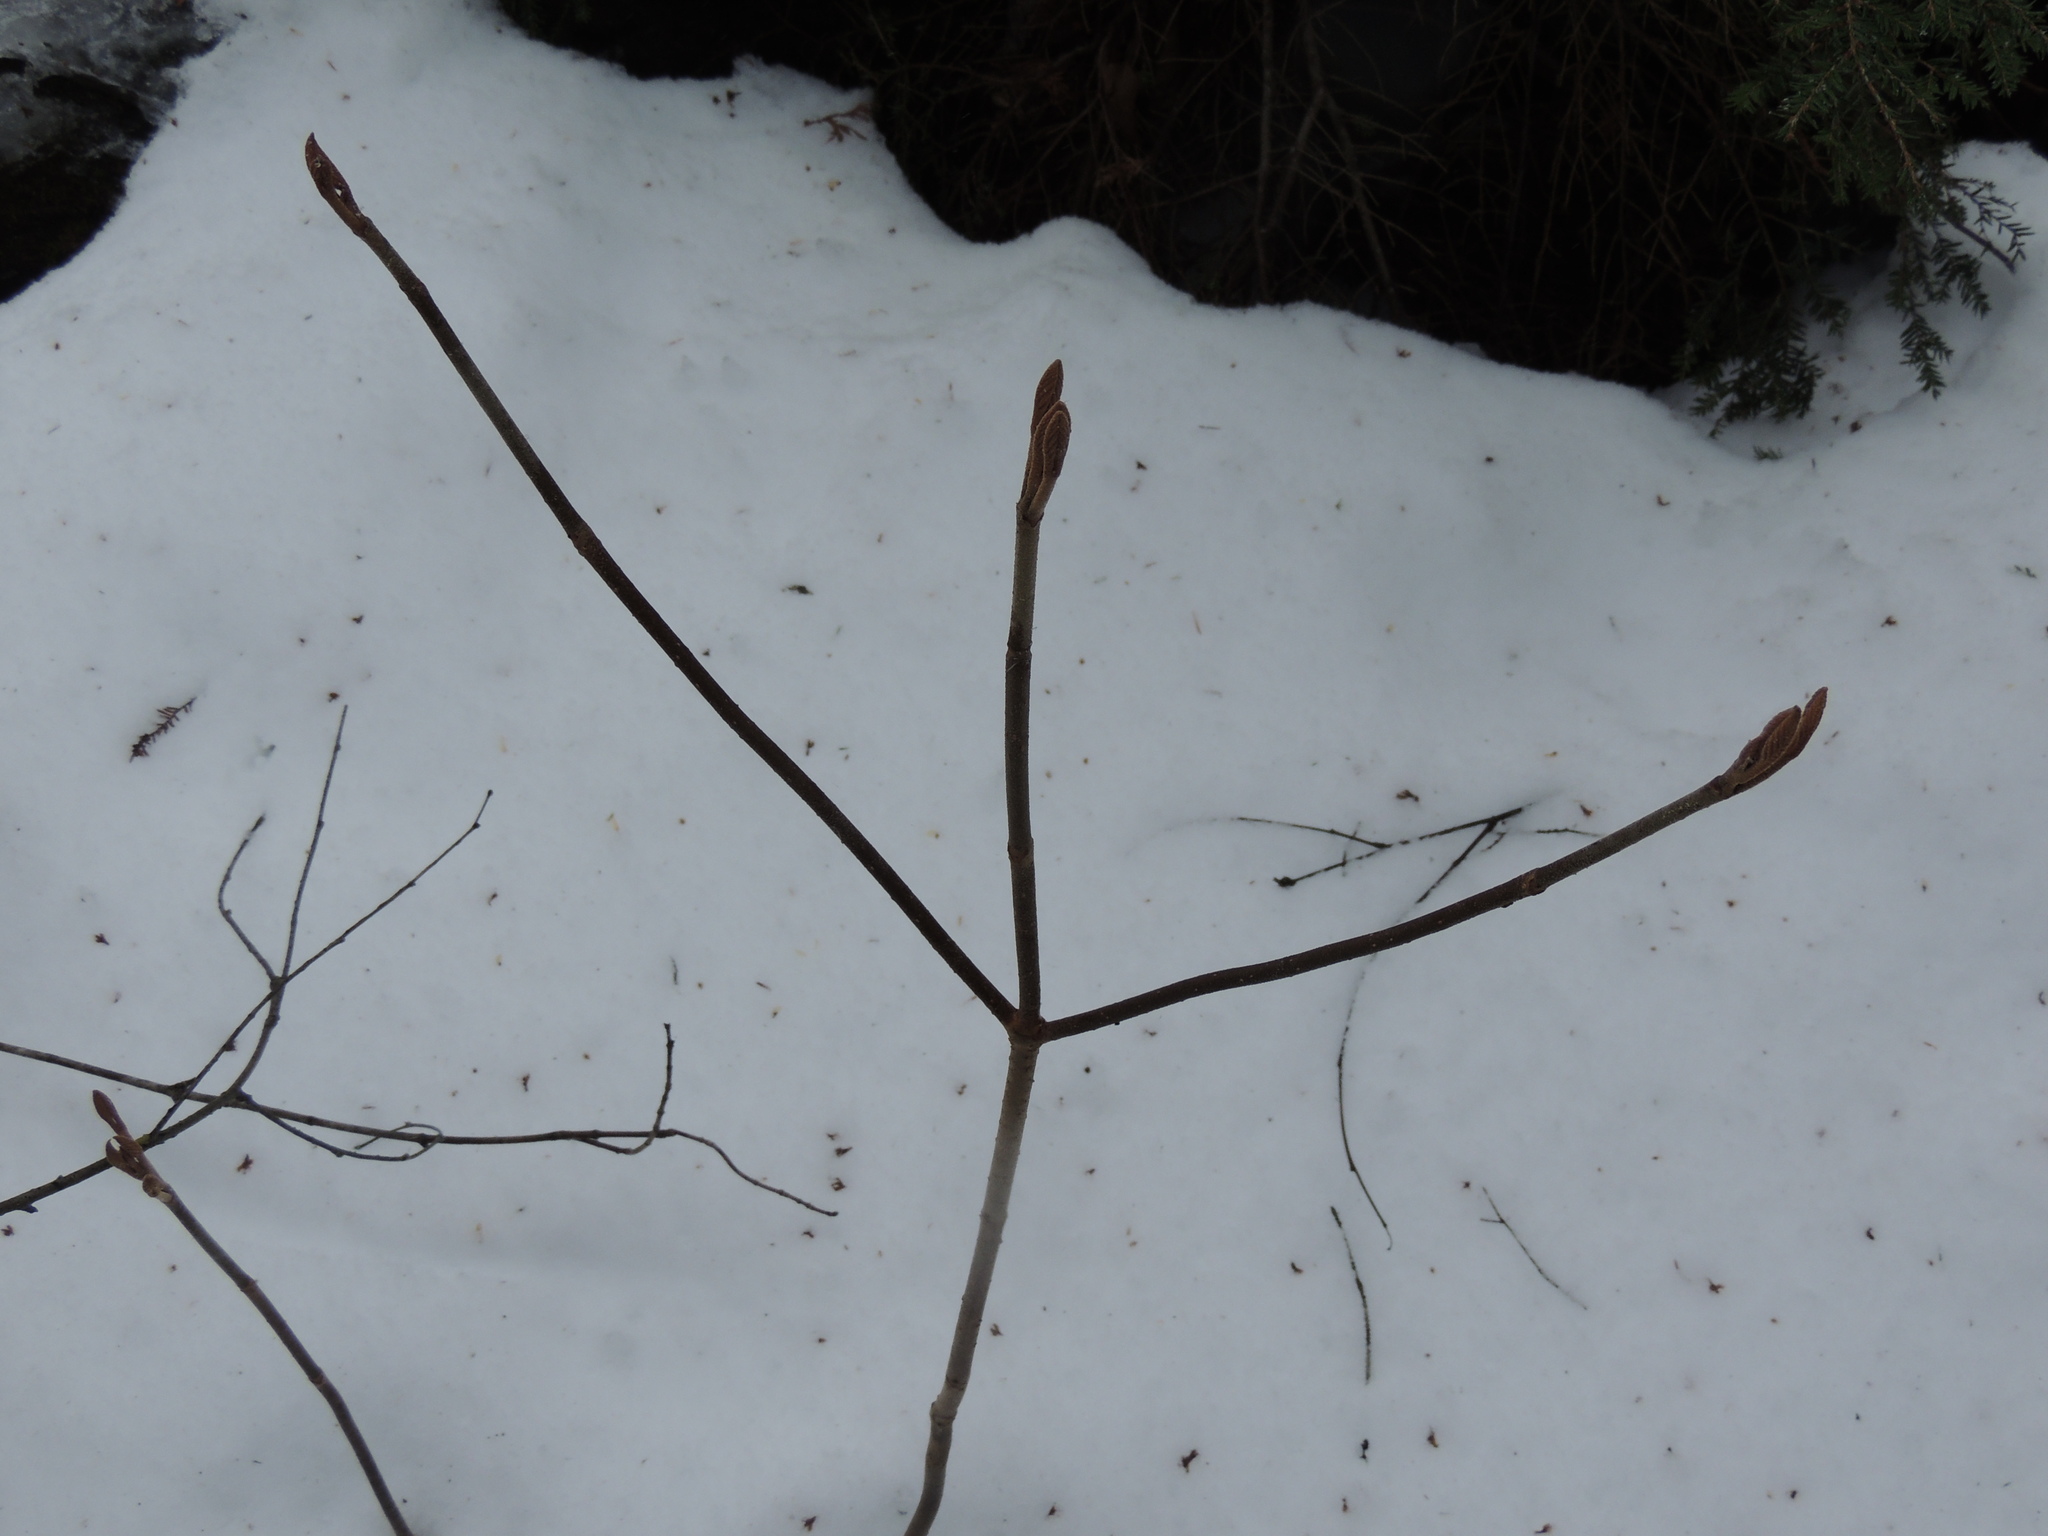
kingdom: Plantae
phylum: Tracheophyta
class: Magnoliopsida
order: Dipsacales
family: Viburnaceae
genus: Viburnum
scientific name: Viburnum lantanoides
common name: Hobblebush
